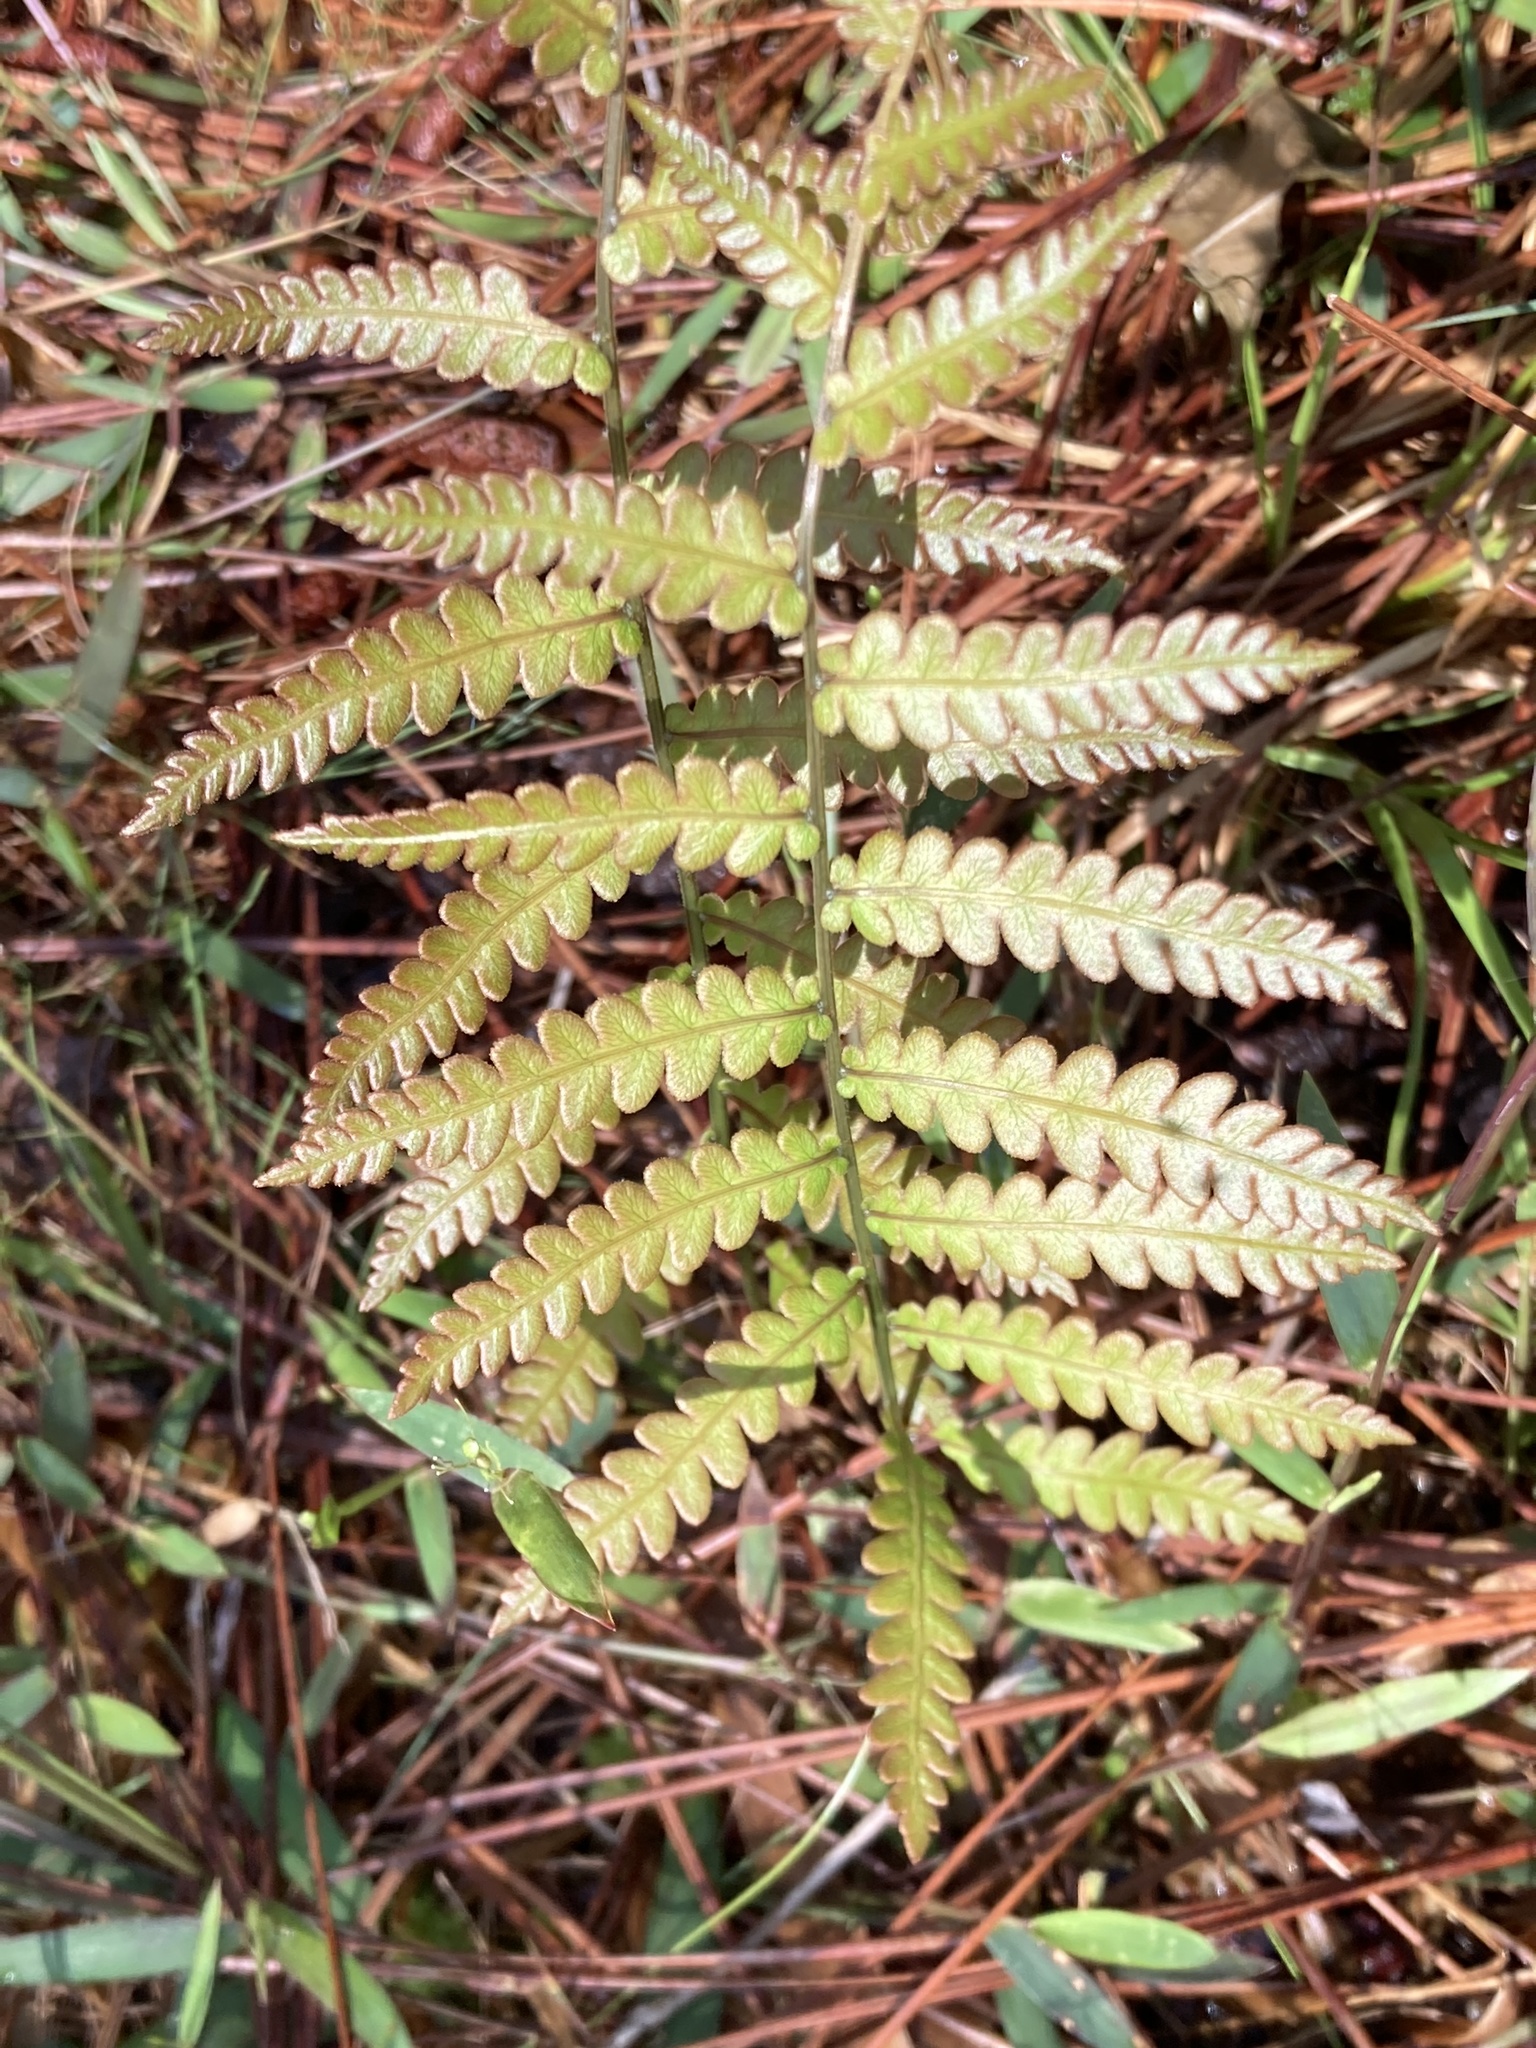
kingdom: Plantae
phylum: Tracheophyta
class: Polypodiopsida
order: Polypodiales
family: Blechnaceae
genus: Anchistea
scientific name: Anchistea virginica
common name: Virginia chain fern
